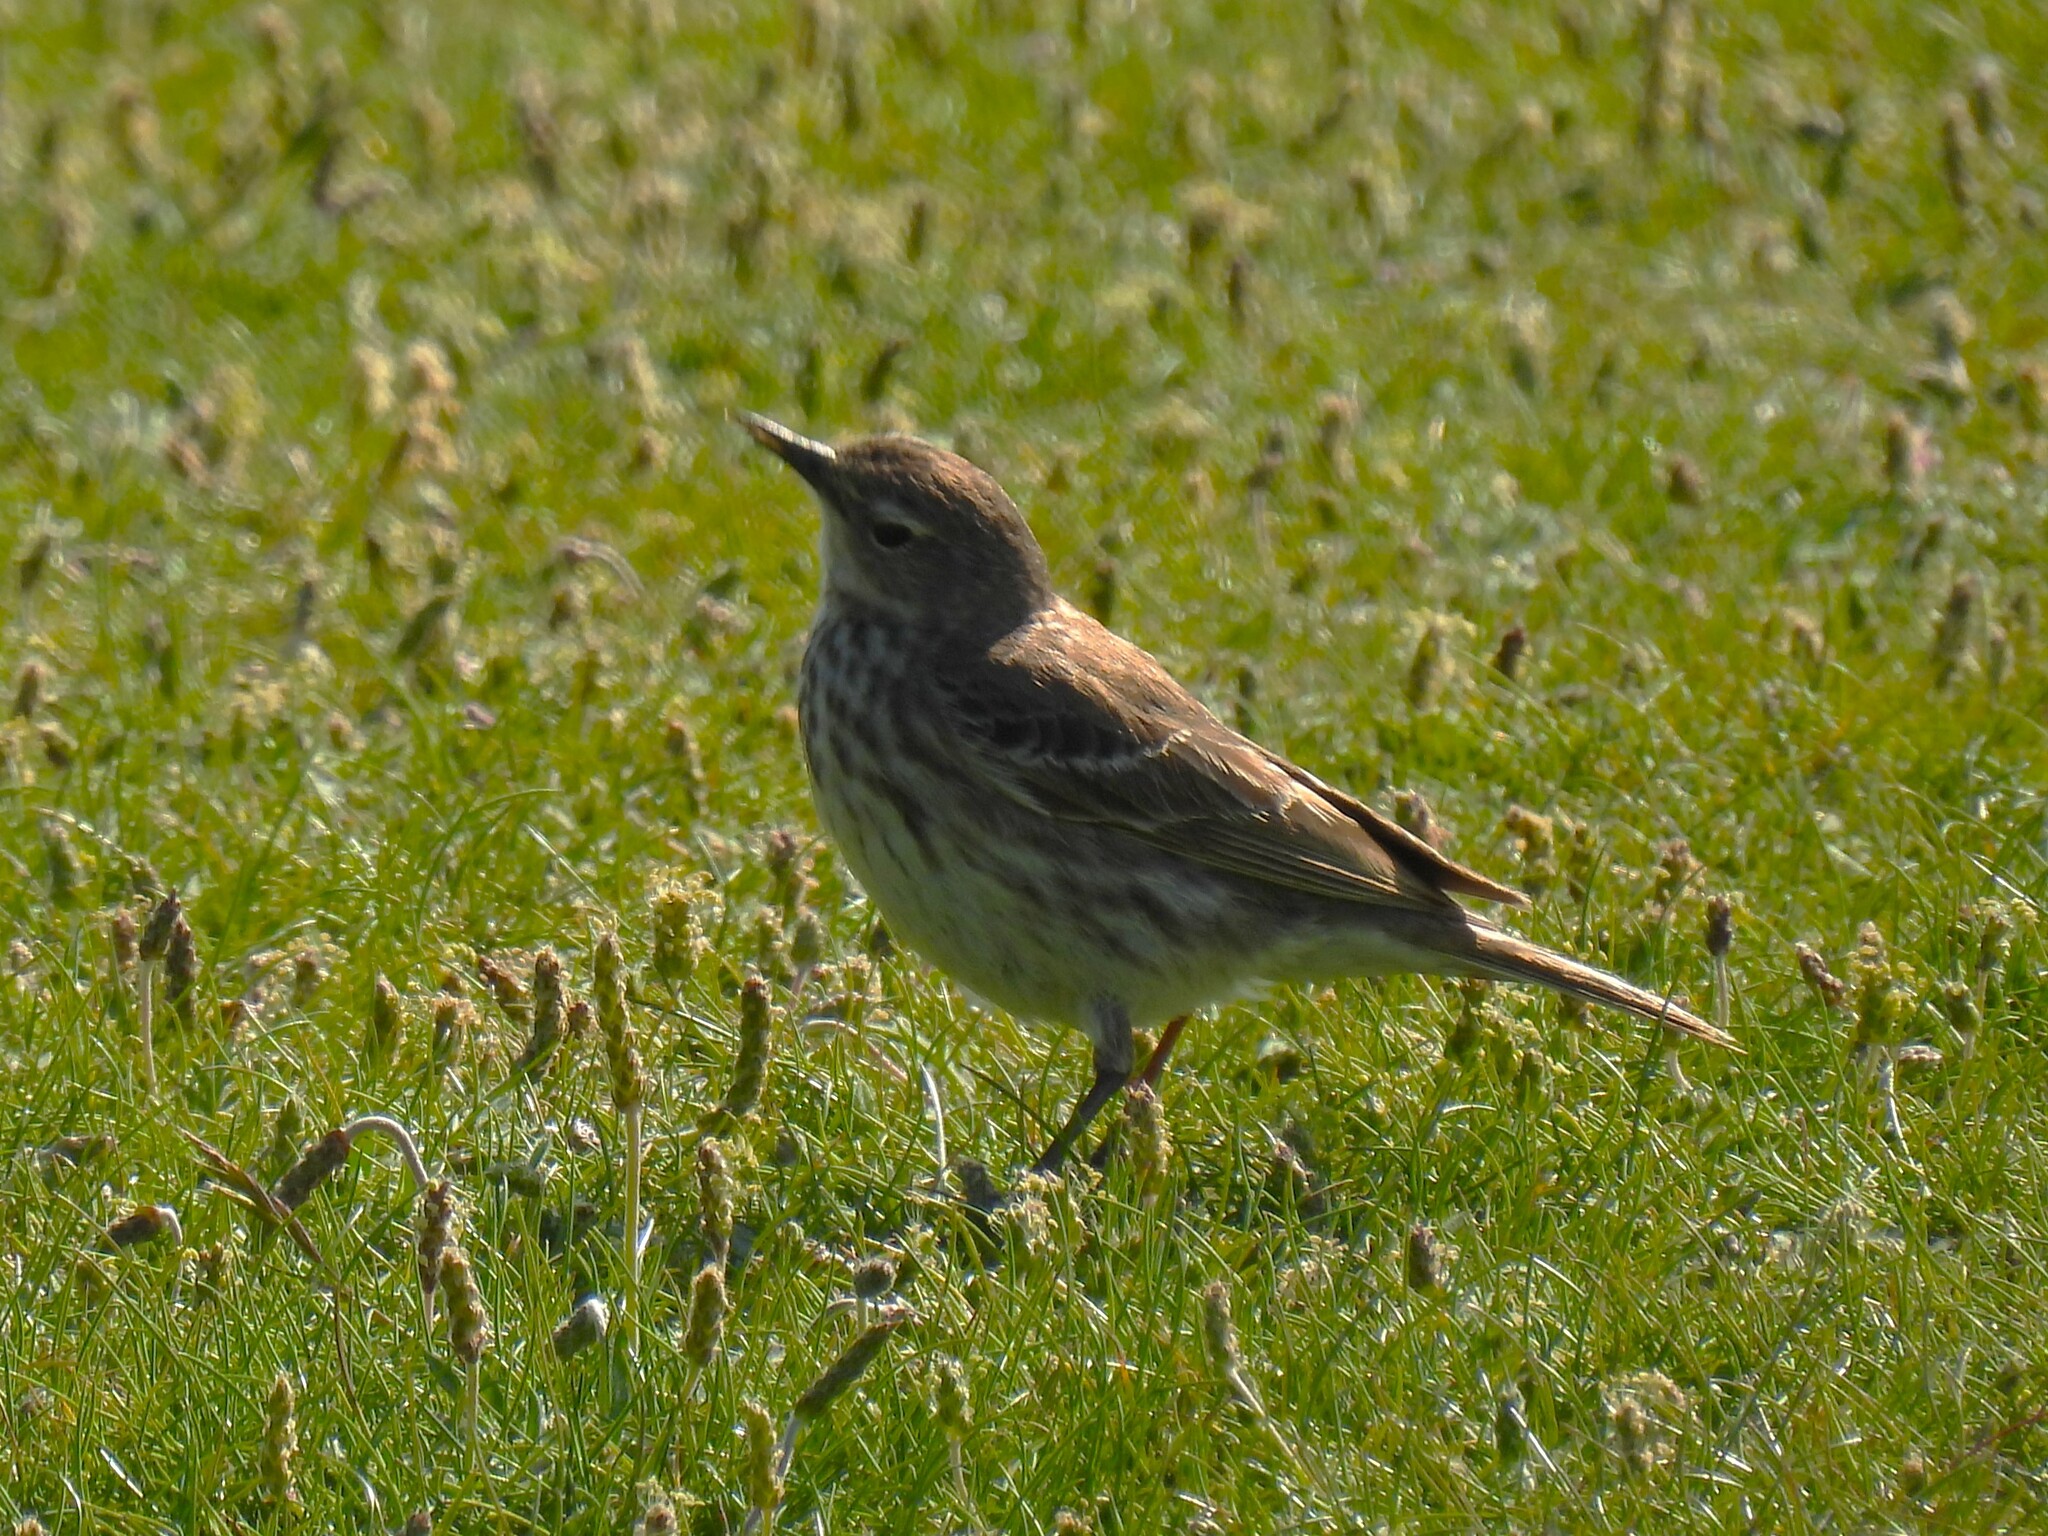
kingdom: Animalia
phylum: Chordata
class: Aves
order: Passeriformes
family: Motacillidae
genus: Anthus
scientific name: Anthus pratensis
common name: Meadow pipit
